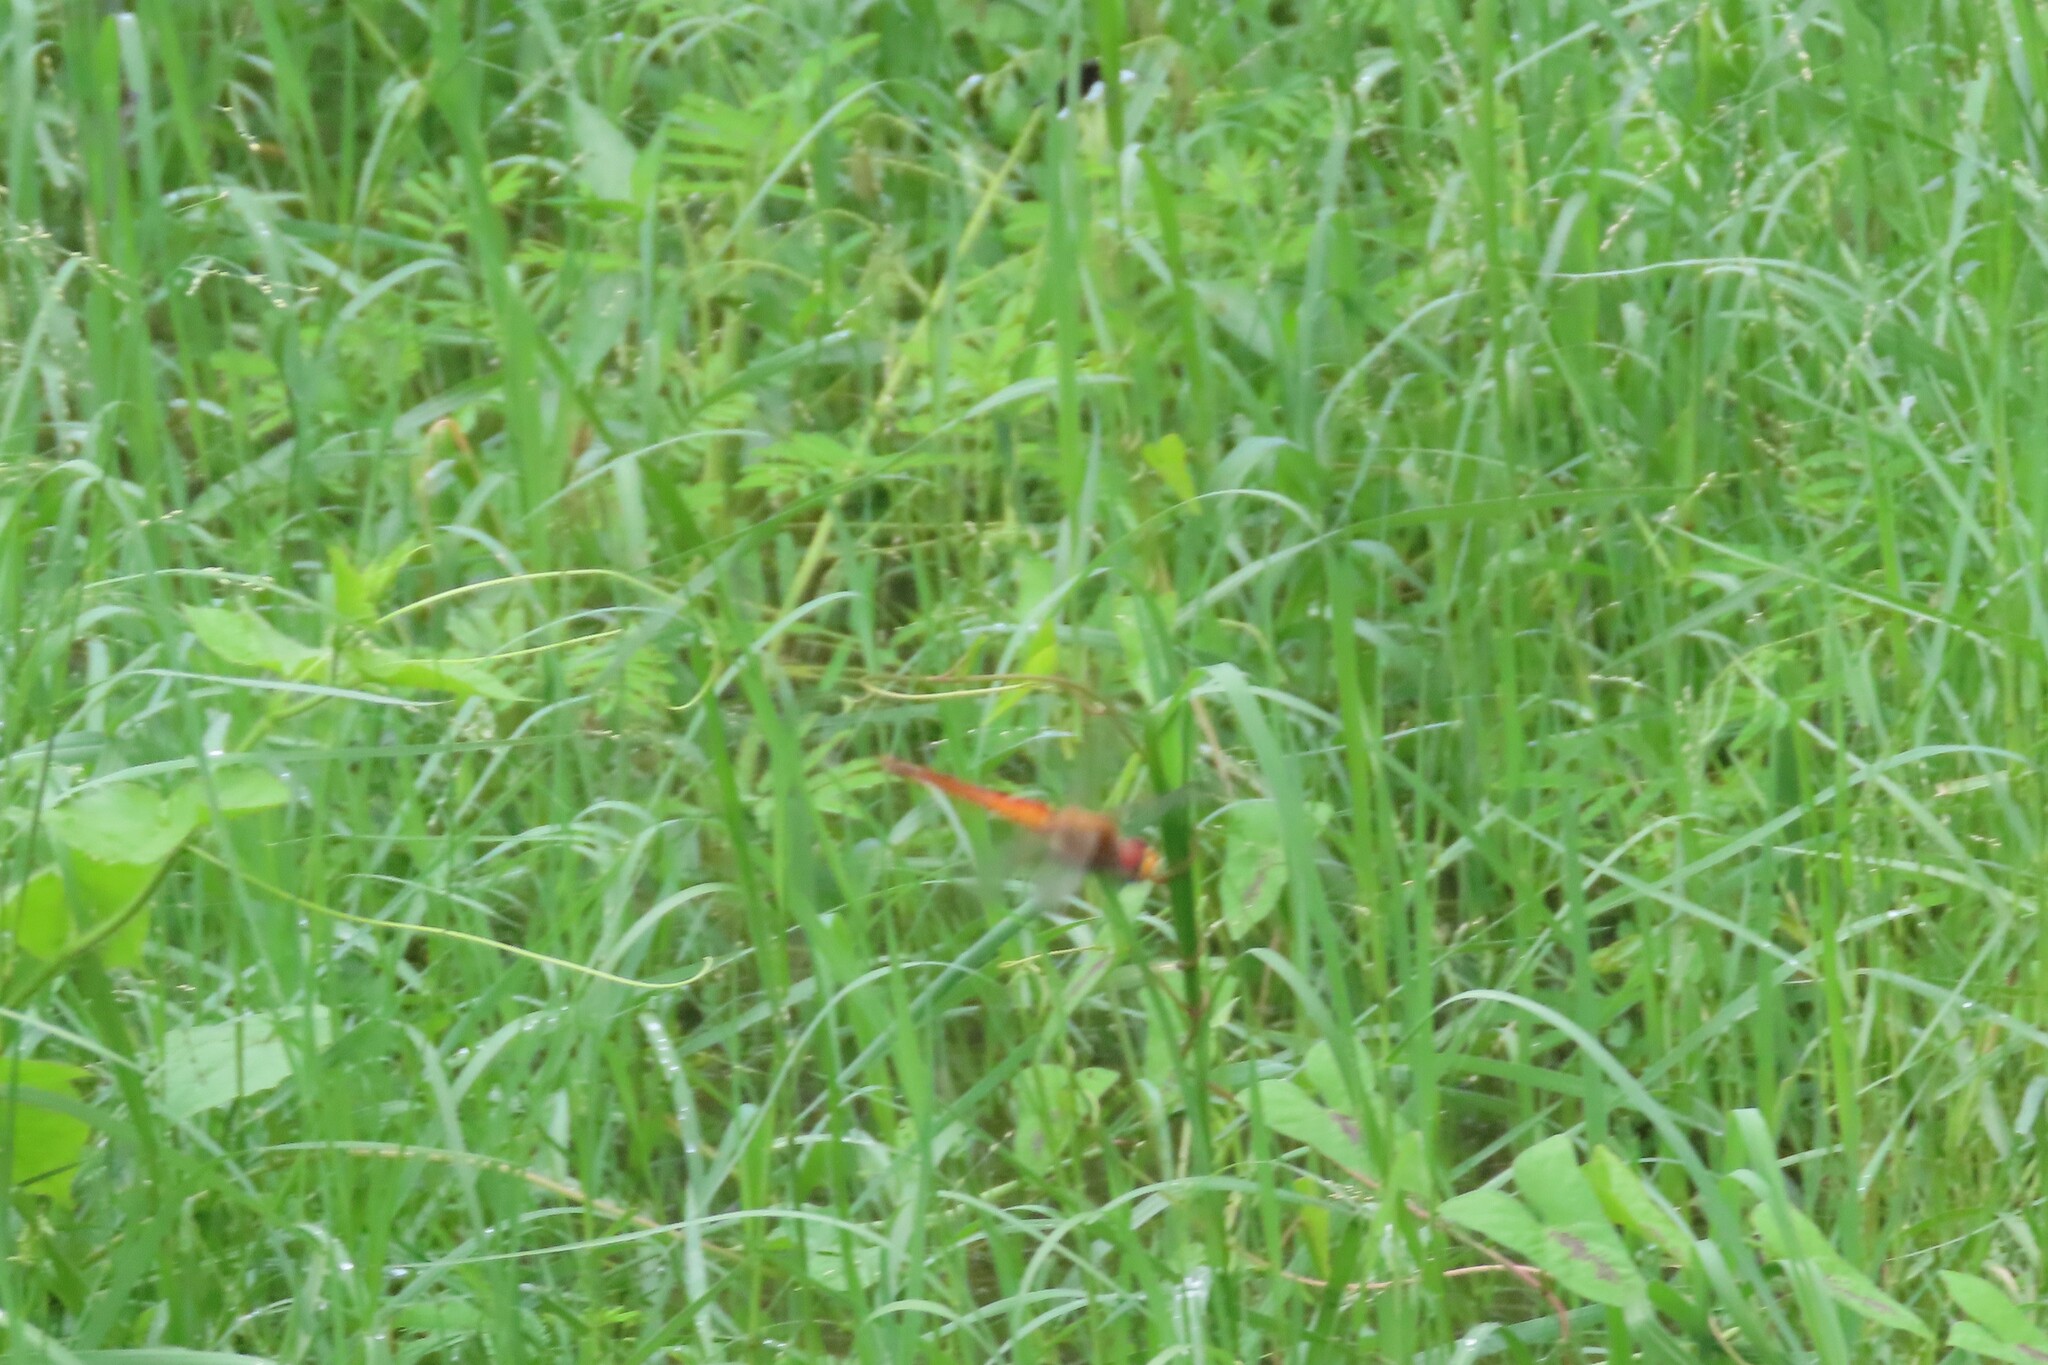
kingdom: Animalia
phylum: Arthropoda
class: Insecta
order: Odonata
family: Libellulidae
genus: Pantala
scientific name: Pantala flavescens
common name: Wandering glider
